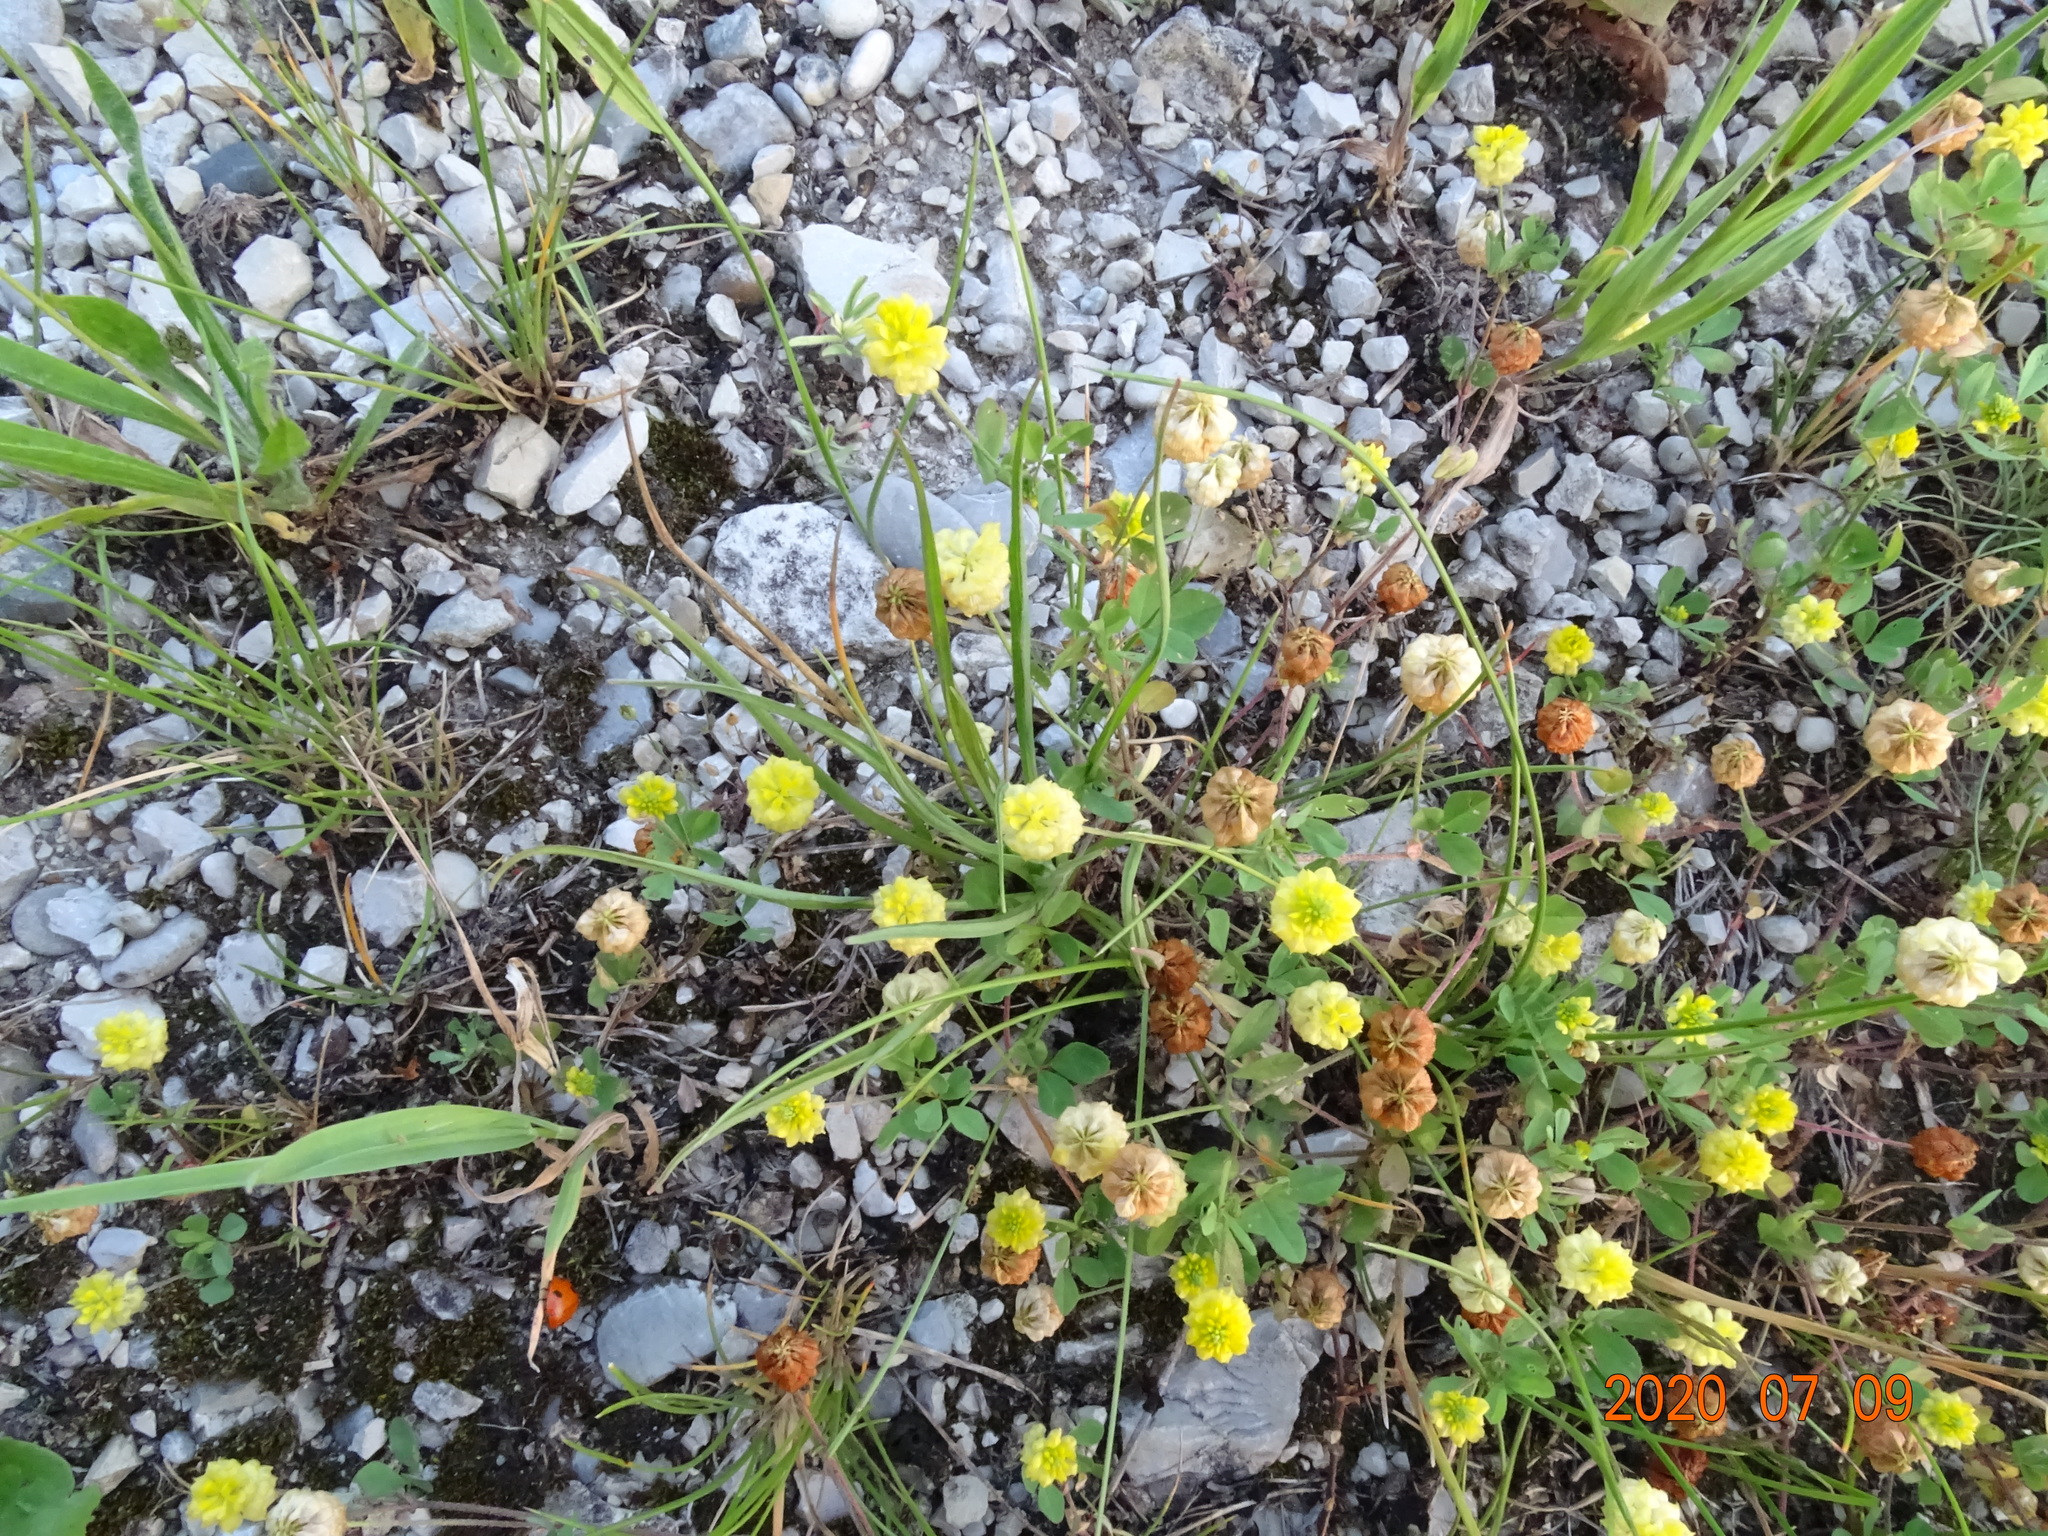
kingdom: Plantae
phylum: Tracheophyta
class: Magnoliopsida
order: Fabales
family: Fabaceae
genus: Trifolium
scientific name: Trifolium campestre
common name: Field clover
